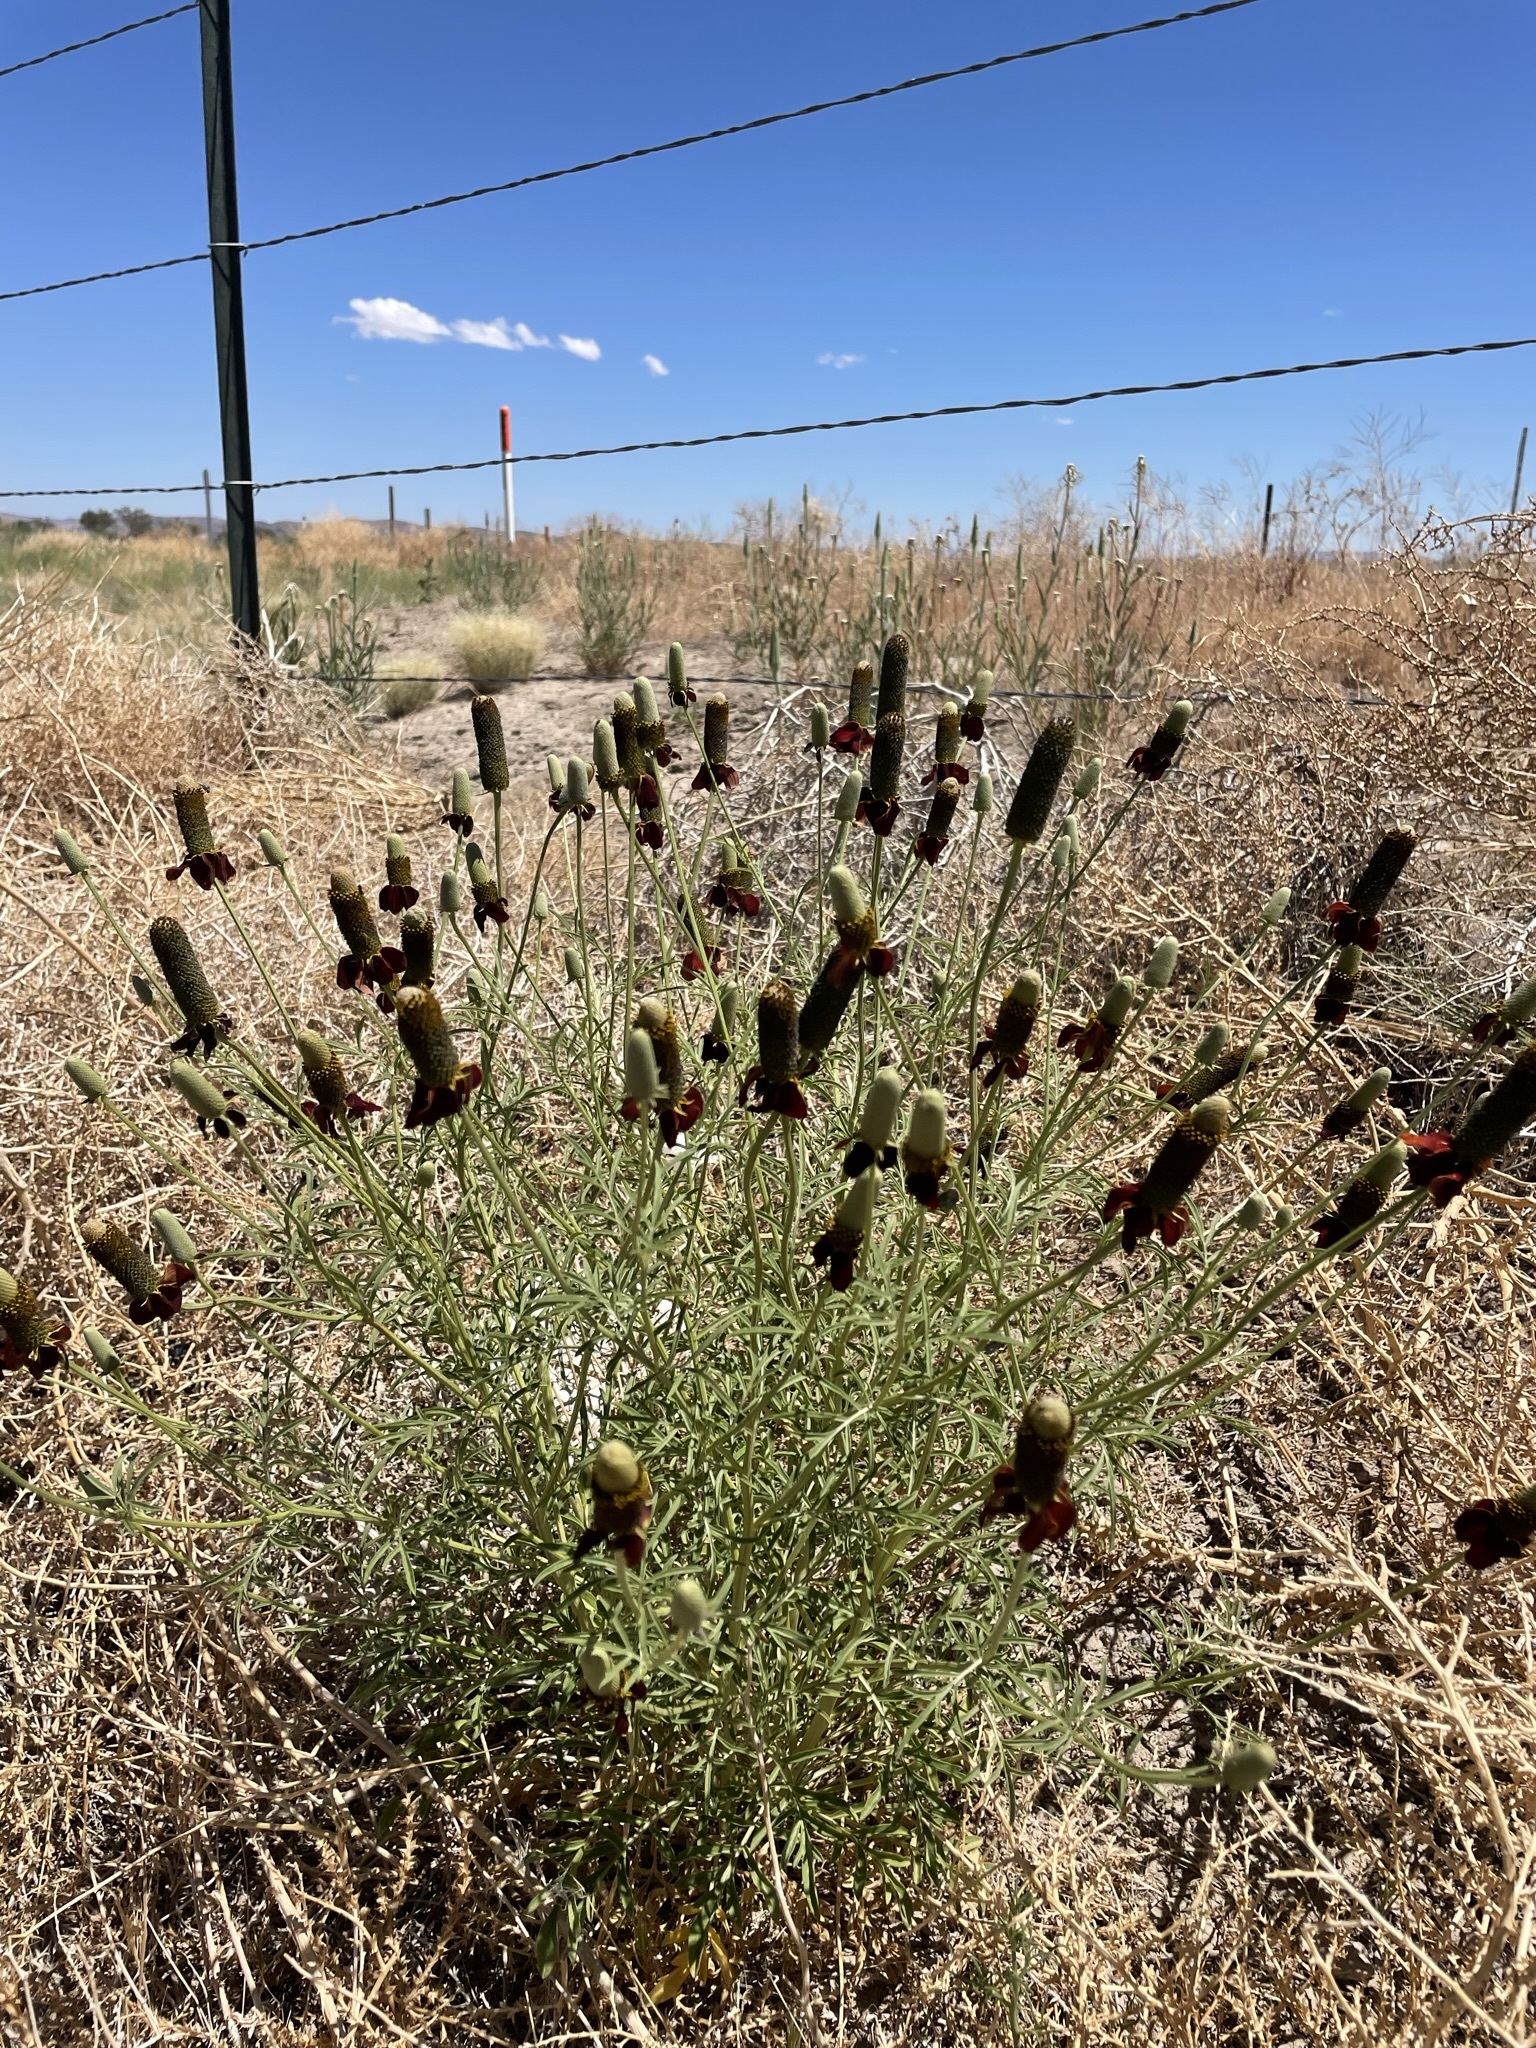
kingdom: Plantae
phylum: Tracheophyta
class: Magnoliopsida
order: Asterales
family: Asteraceae
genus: Ratibida
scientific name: Ratibida columnifera
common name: Prairie coneflower
